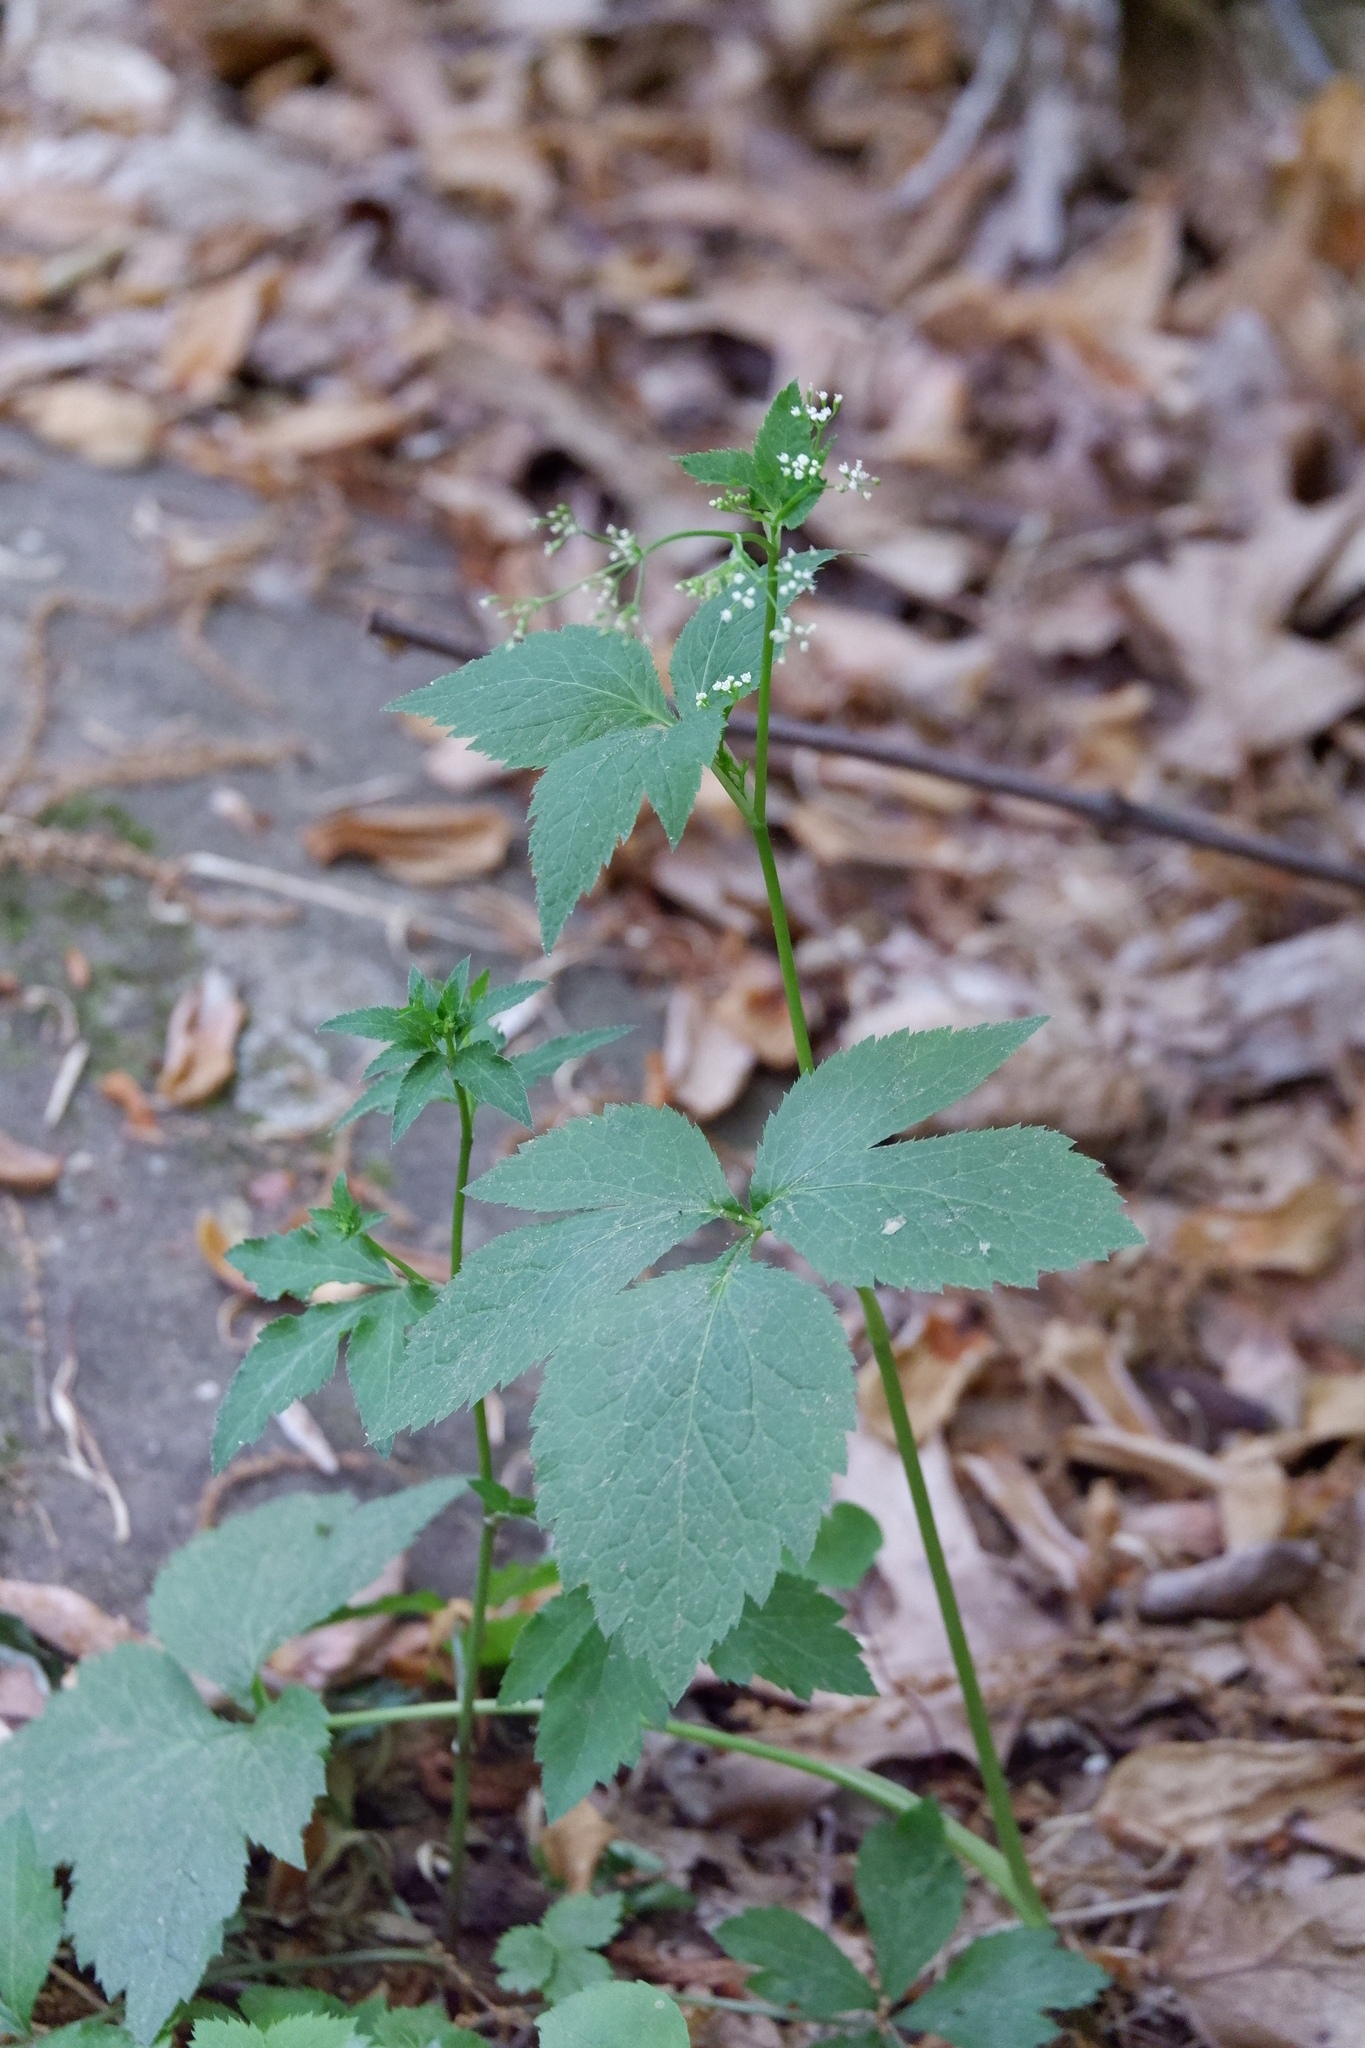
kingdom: Plantae
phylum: Tracheophyta
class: Magnoliopsida
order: Apiales
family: Apiaceae
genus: Cryptotaenia
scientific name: Cryptotaenia canadensis
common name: Honewort
